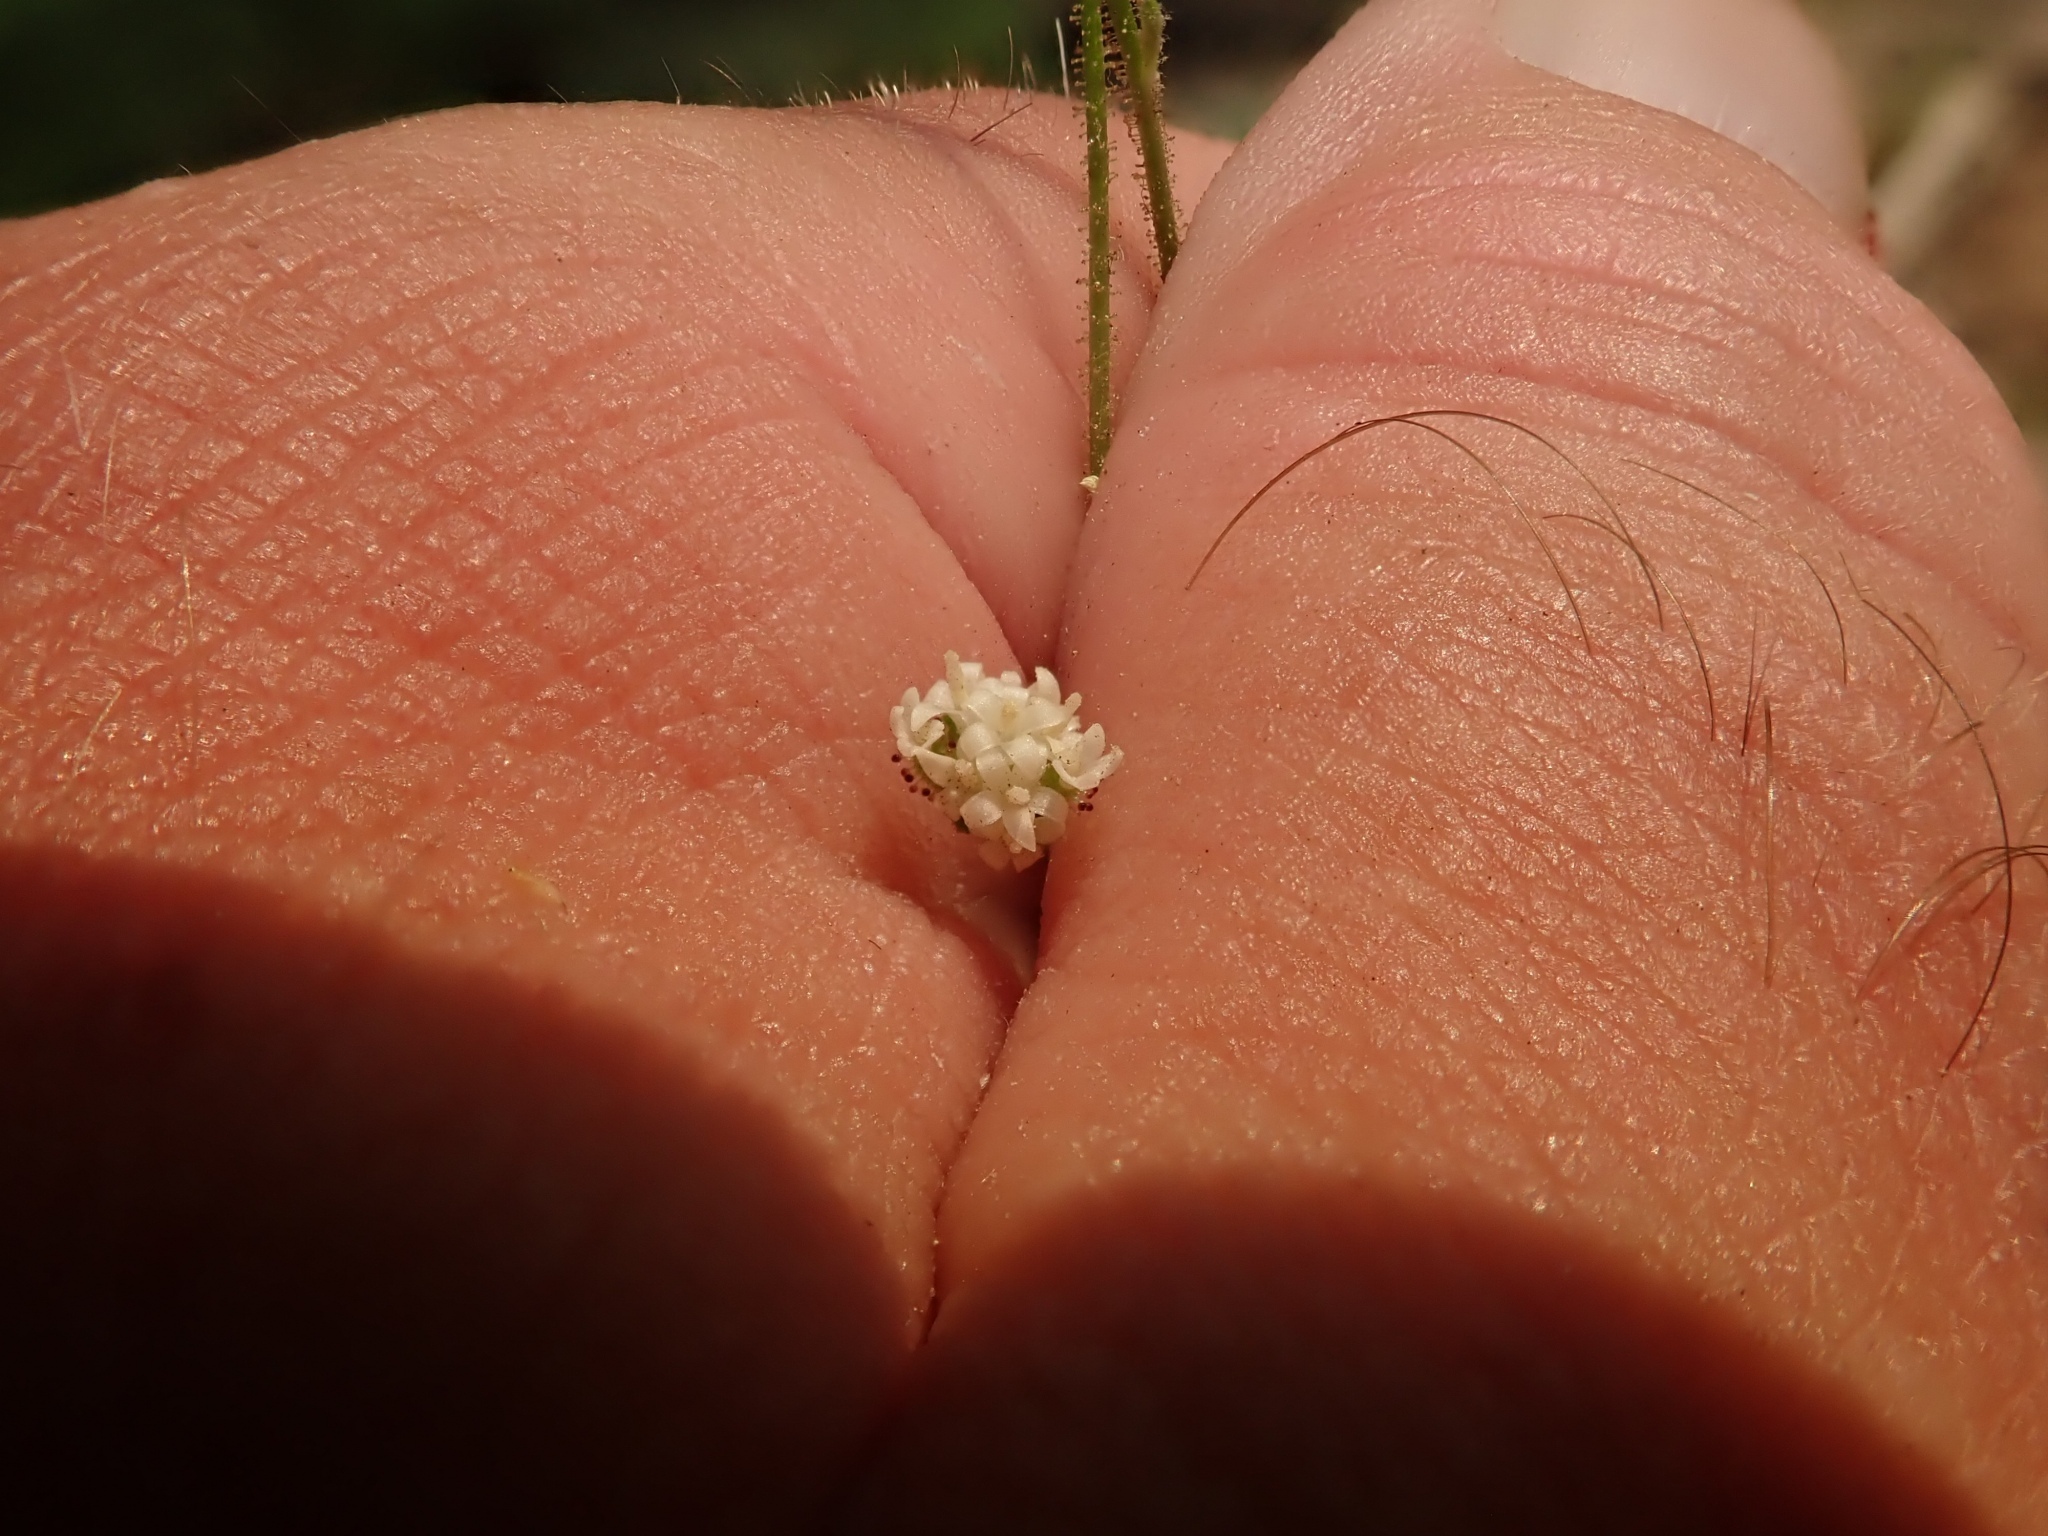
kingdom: Plantae
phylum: Tracheophyta
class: Magnoliopsida
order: Asterales
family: Asteraceae
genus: Adenocaulon
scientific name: Adenocaulon bicolor
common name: Trailplant
